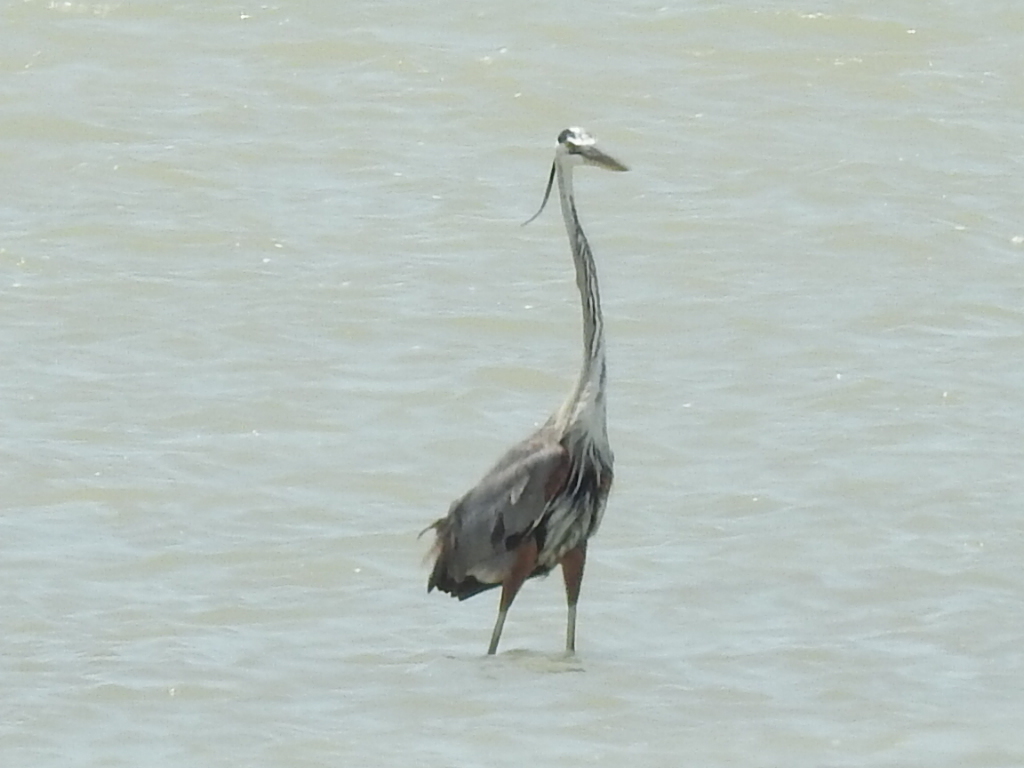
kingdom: Animalia
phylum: Chordata
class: Aves
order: Pelecaniformes
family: Ardeidae
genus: Ardea
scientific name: Ardea herodias
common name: Great blue heron
